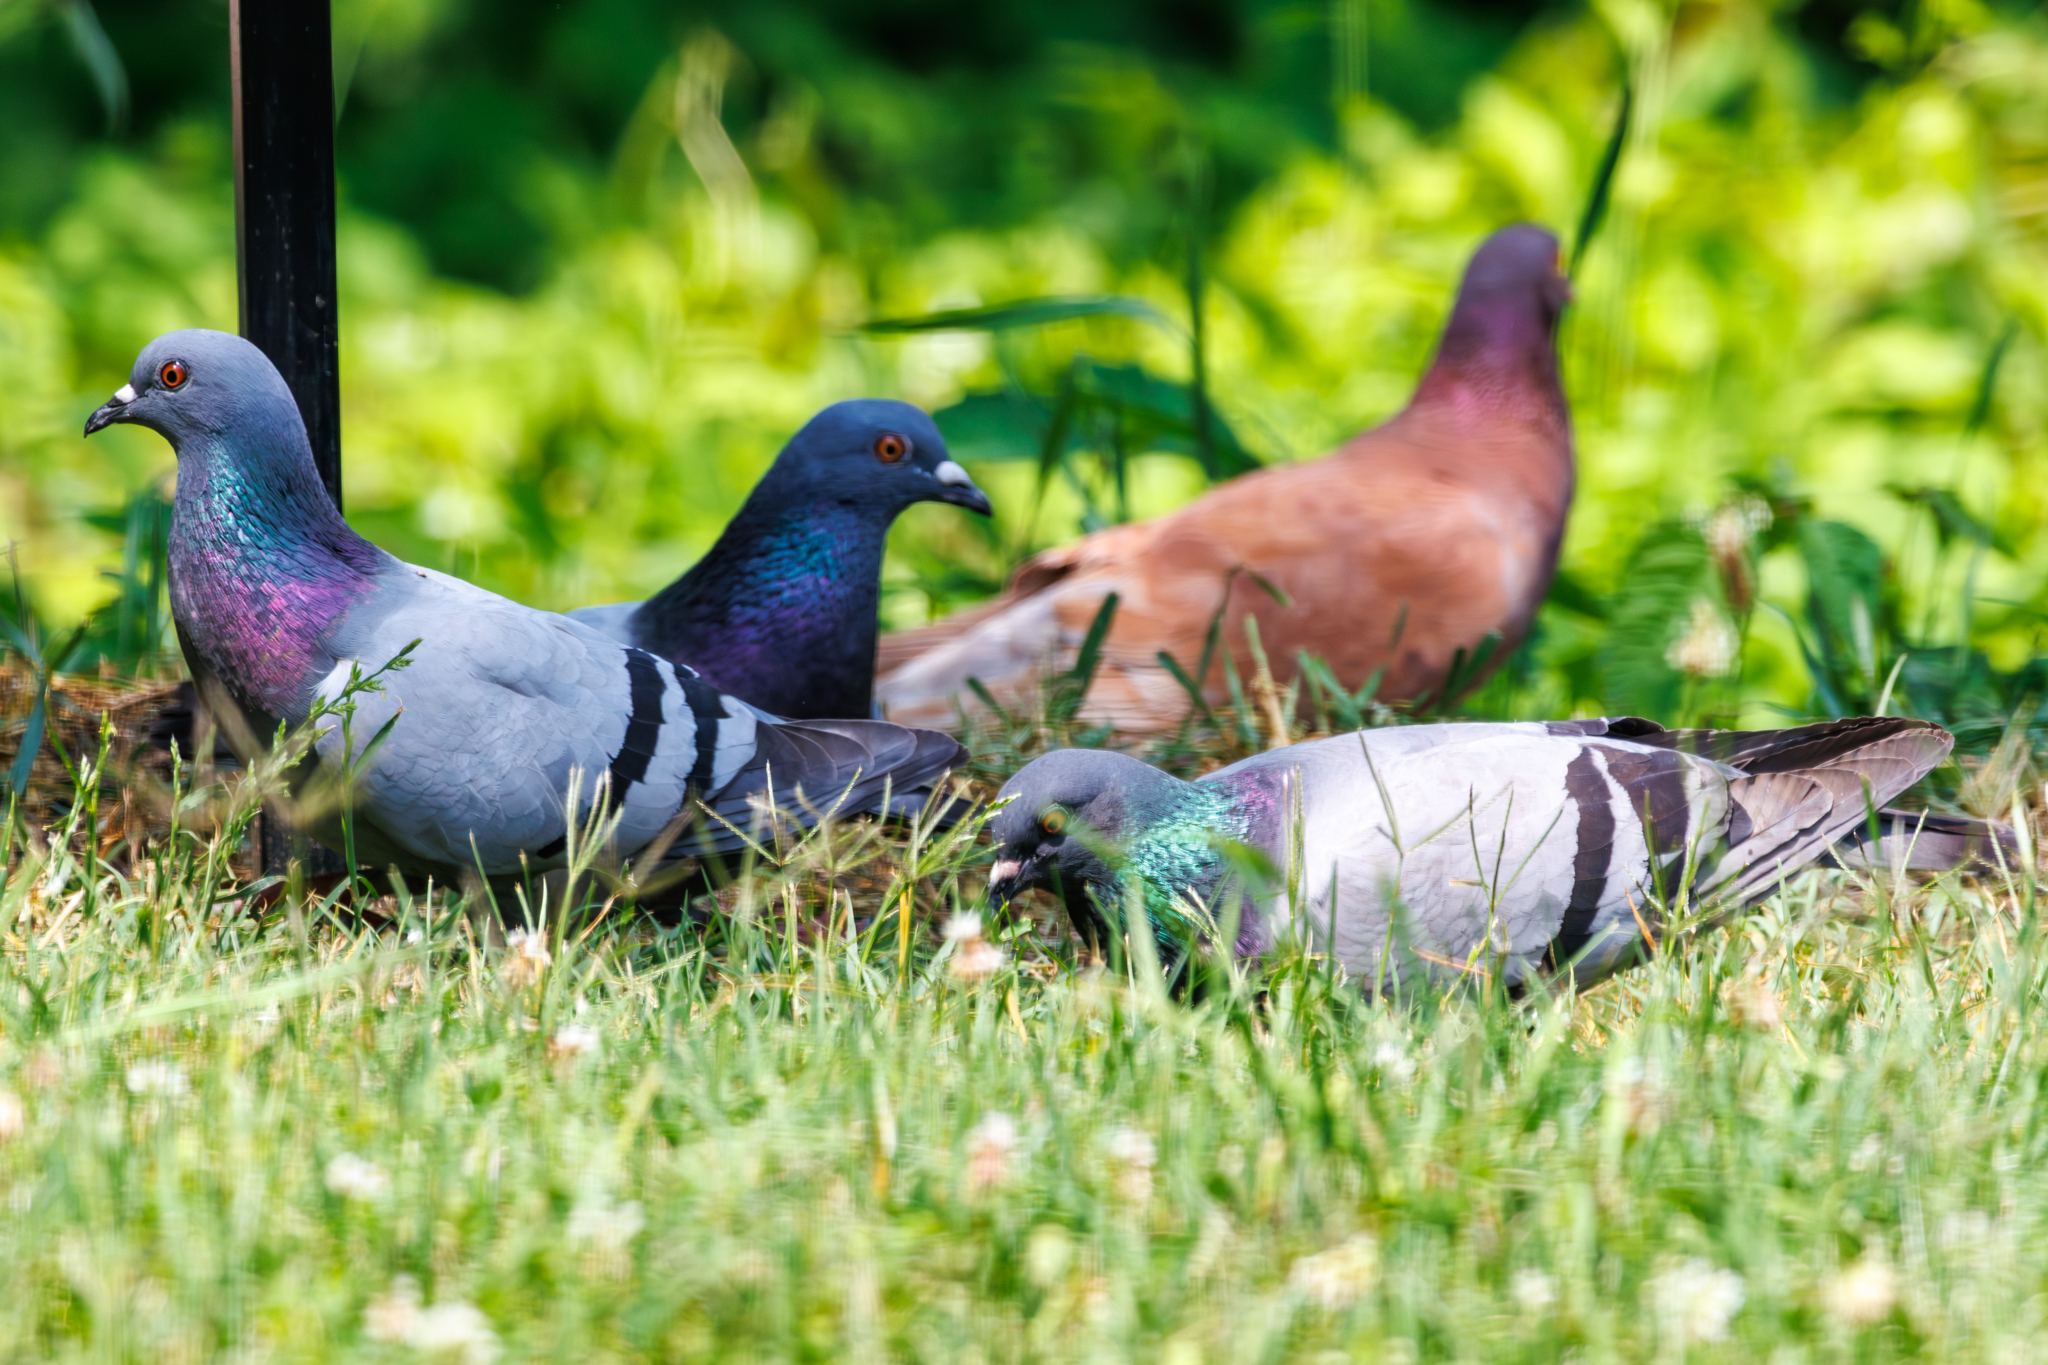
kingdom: Animalia
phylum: Chordata
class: Aves
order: Columbiformes
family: Columbidae
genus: Columba
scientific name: Columba livia
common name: Rock pigeon
